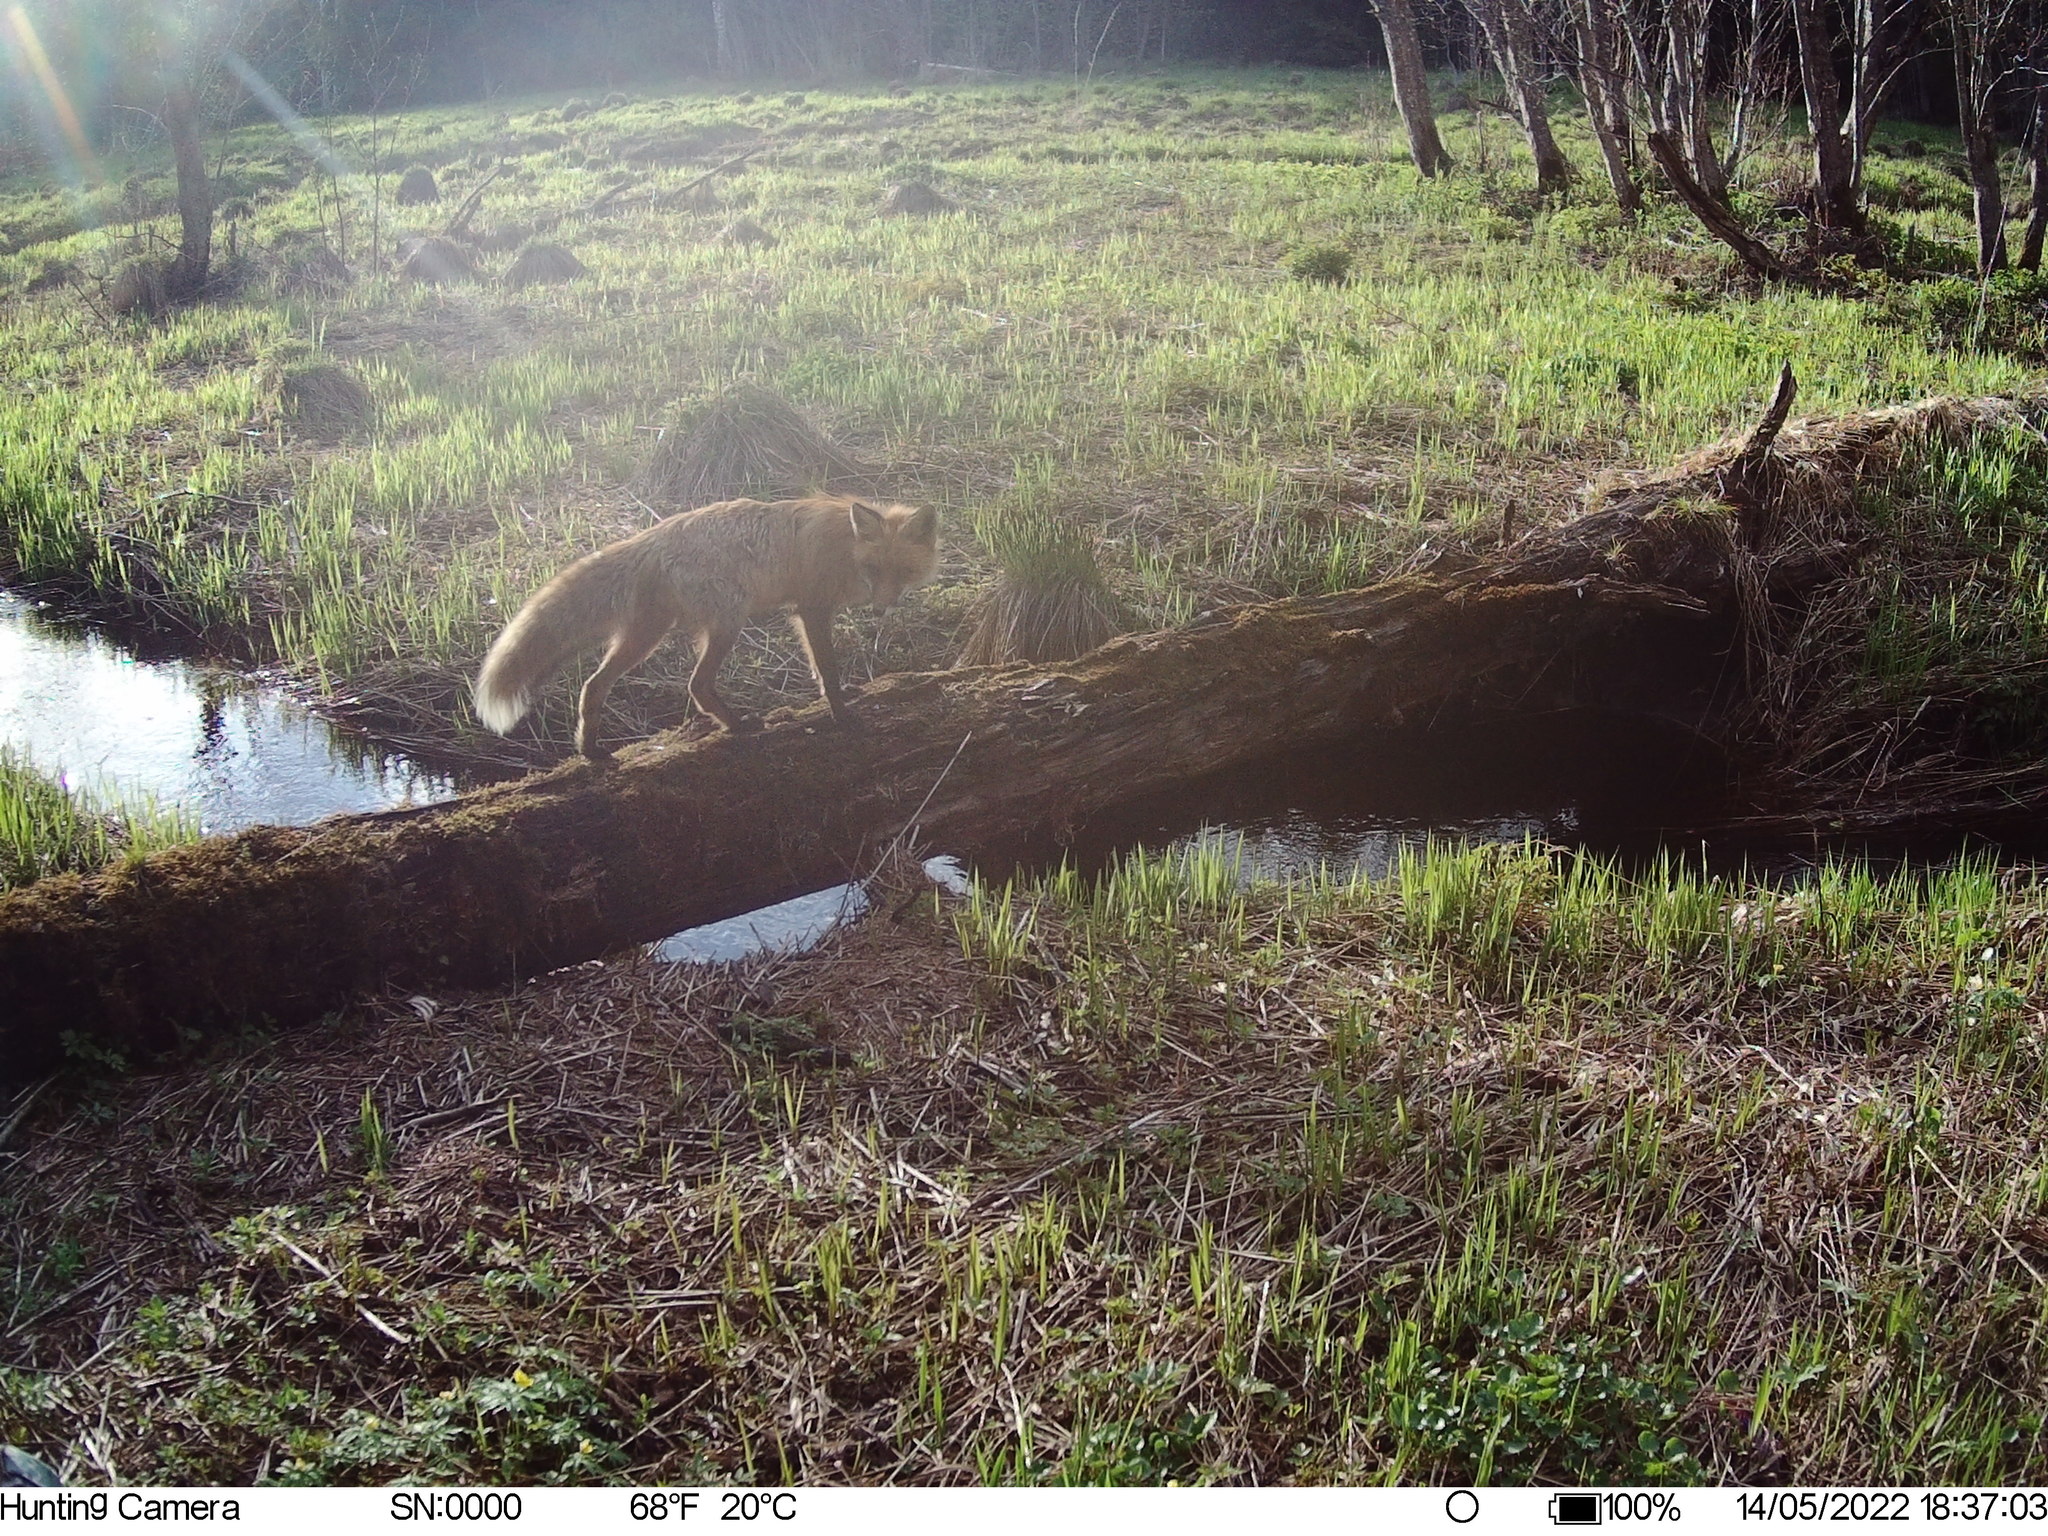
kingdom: Animalia
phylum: Chordata
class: Mammalia
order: Carnivora
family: Canidae
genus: Vulpes
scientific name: Vulpes vulpes
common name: Red fox
